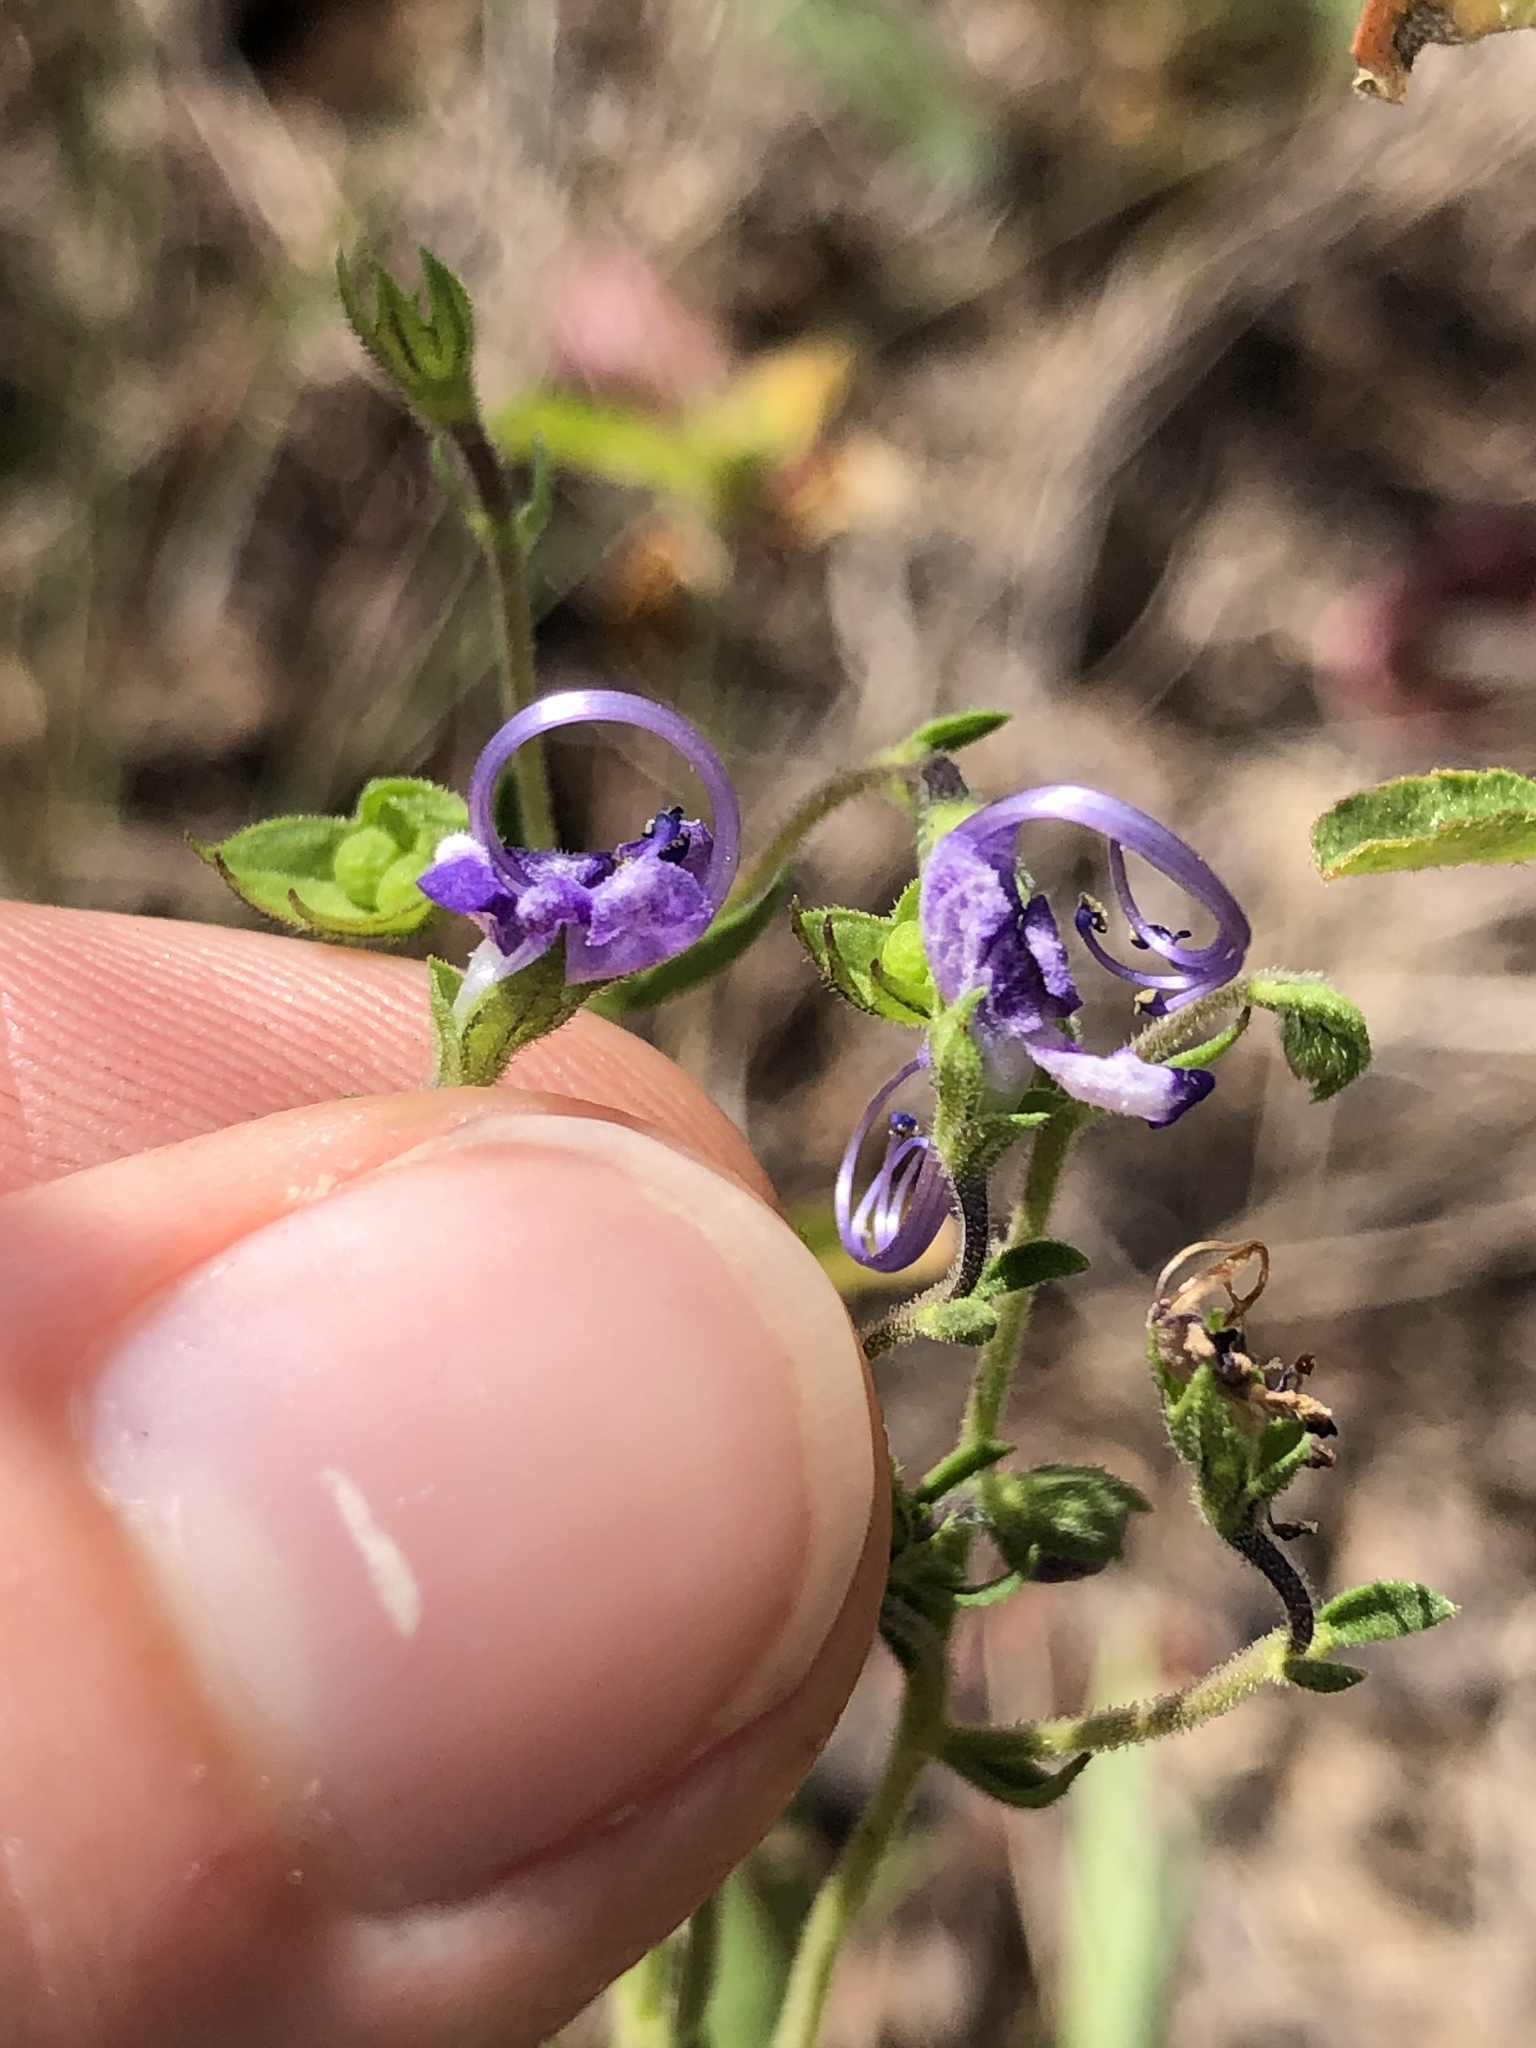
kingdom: Plantae
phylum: Tracheophyta
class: Magnoliopsida
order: Lamiales
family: Lamiaceae
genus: Trichostema
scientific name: Trichostema dichotomum
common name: Bastard pennyroyal
